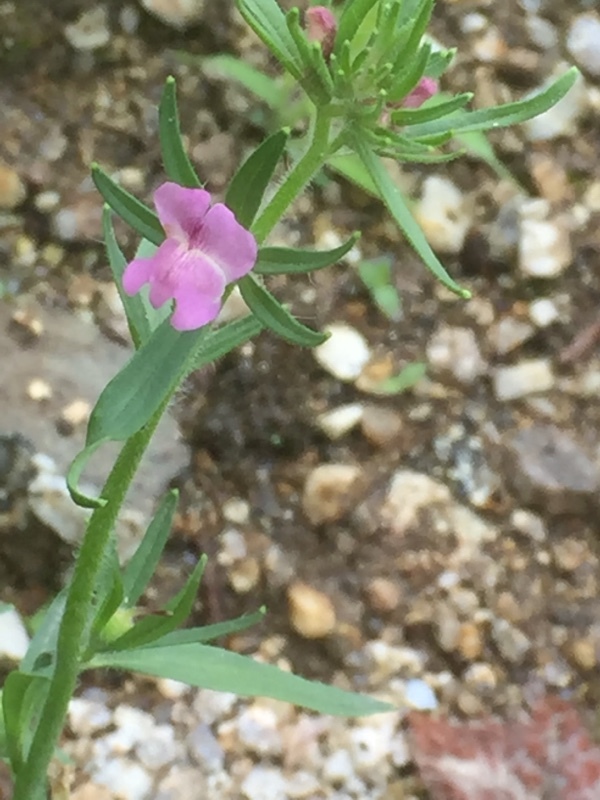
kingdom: Plantae
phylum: Tracheophyta
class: Magnoliopsida
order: Lamiales
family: Plantaginaceae
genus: Misopates
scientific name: Misopates orontium
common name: Weasel's-snout
